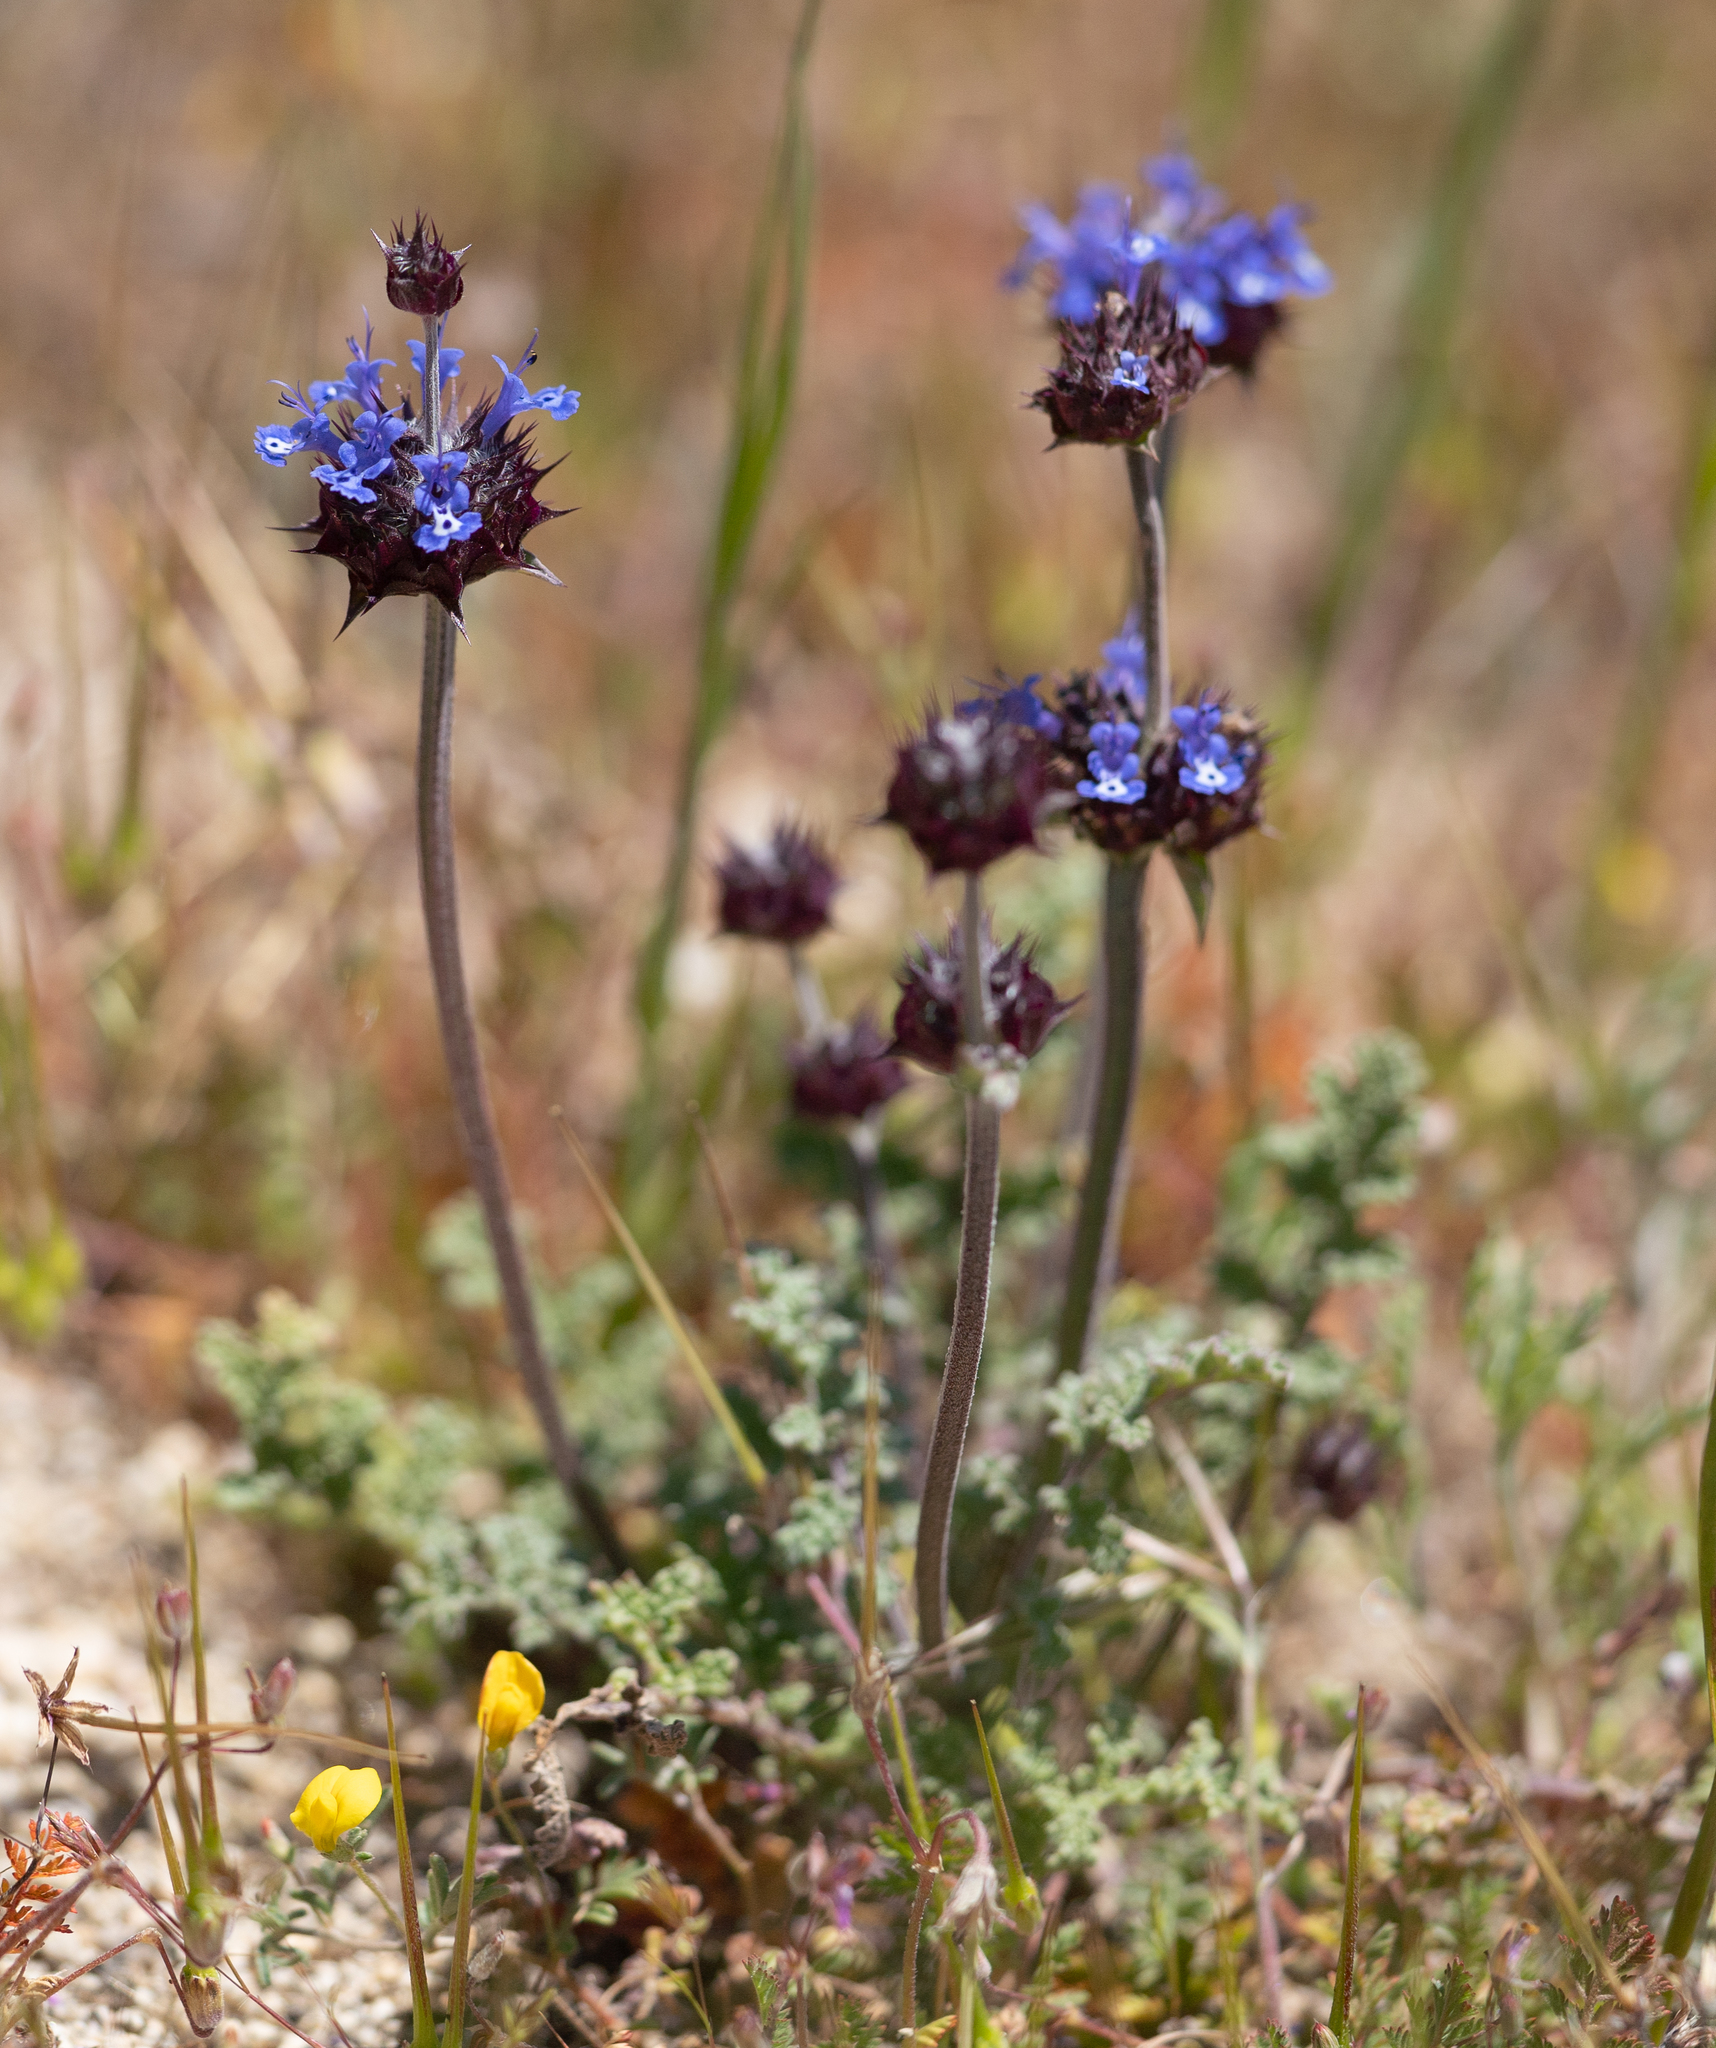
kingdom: Plantae
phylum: Tracheophyta
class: Magnoliopsida
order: Lamiales
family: Lamiaceae
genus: Salvia
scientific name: Salvia columbariae
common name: Chia
